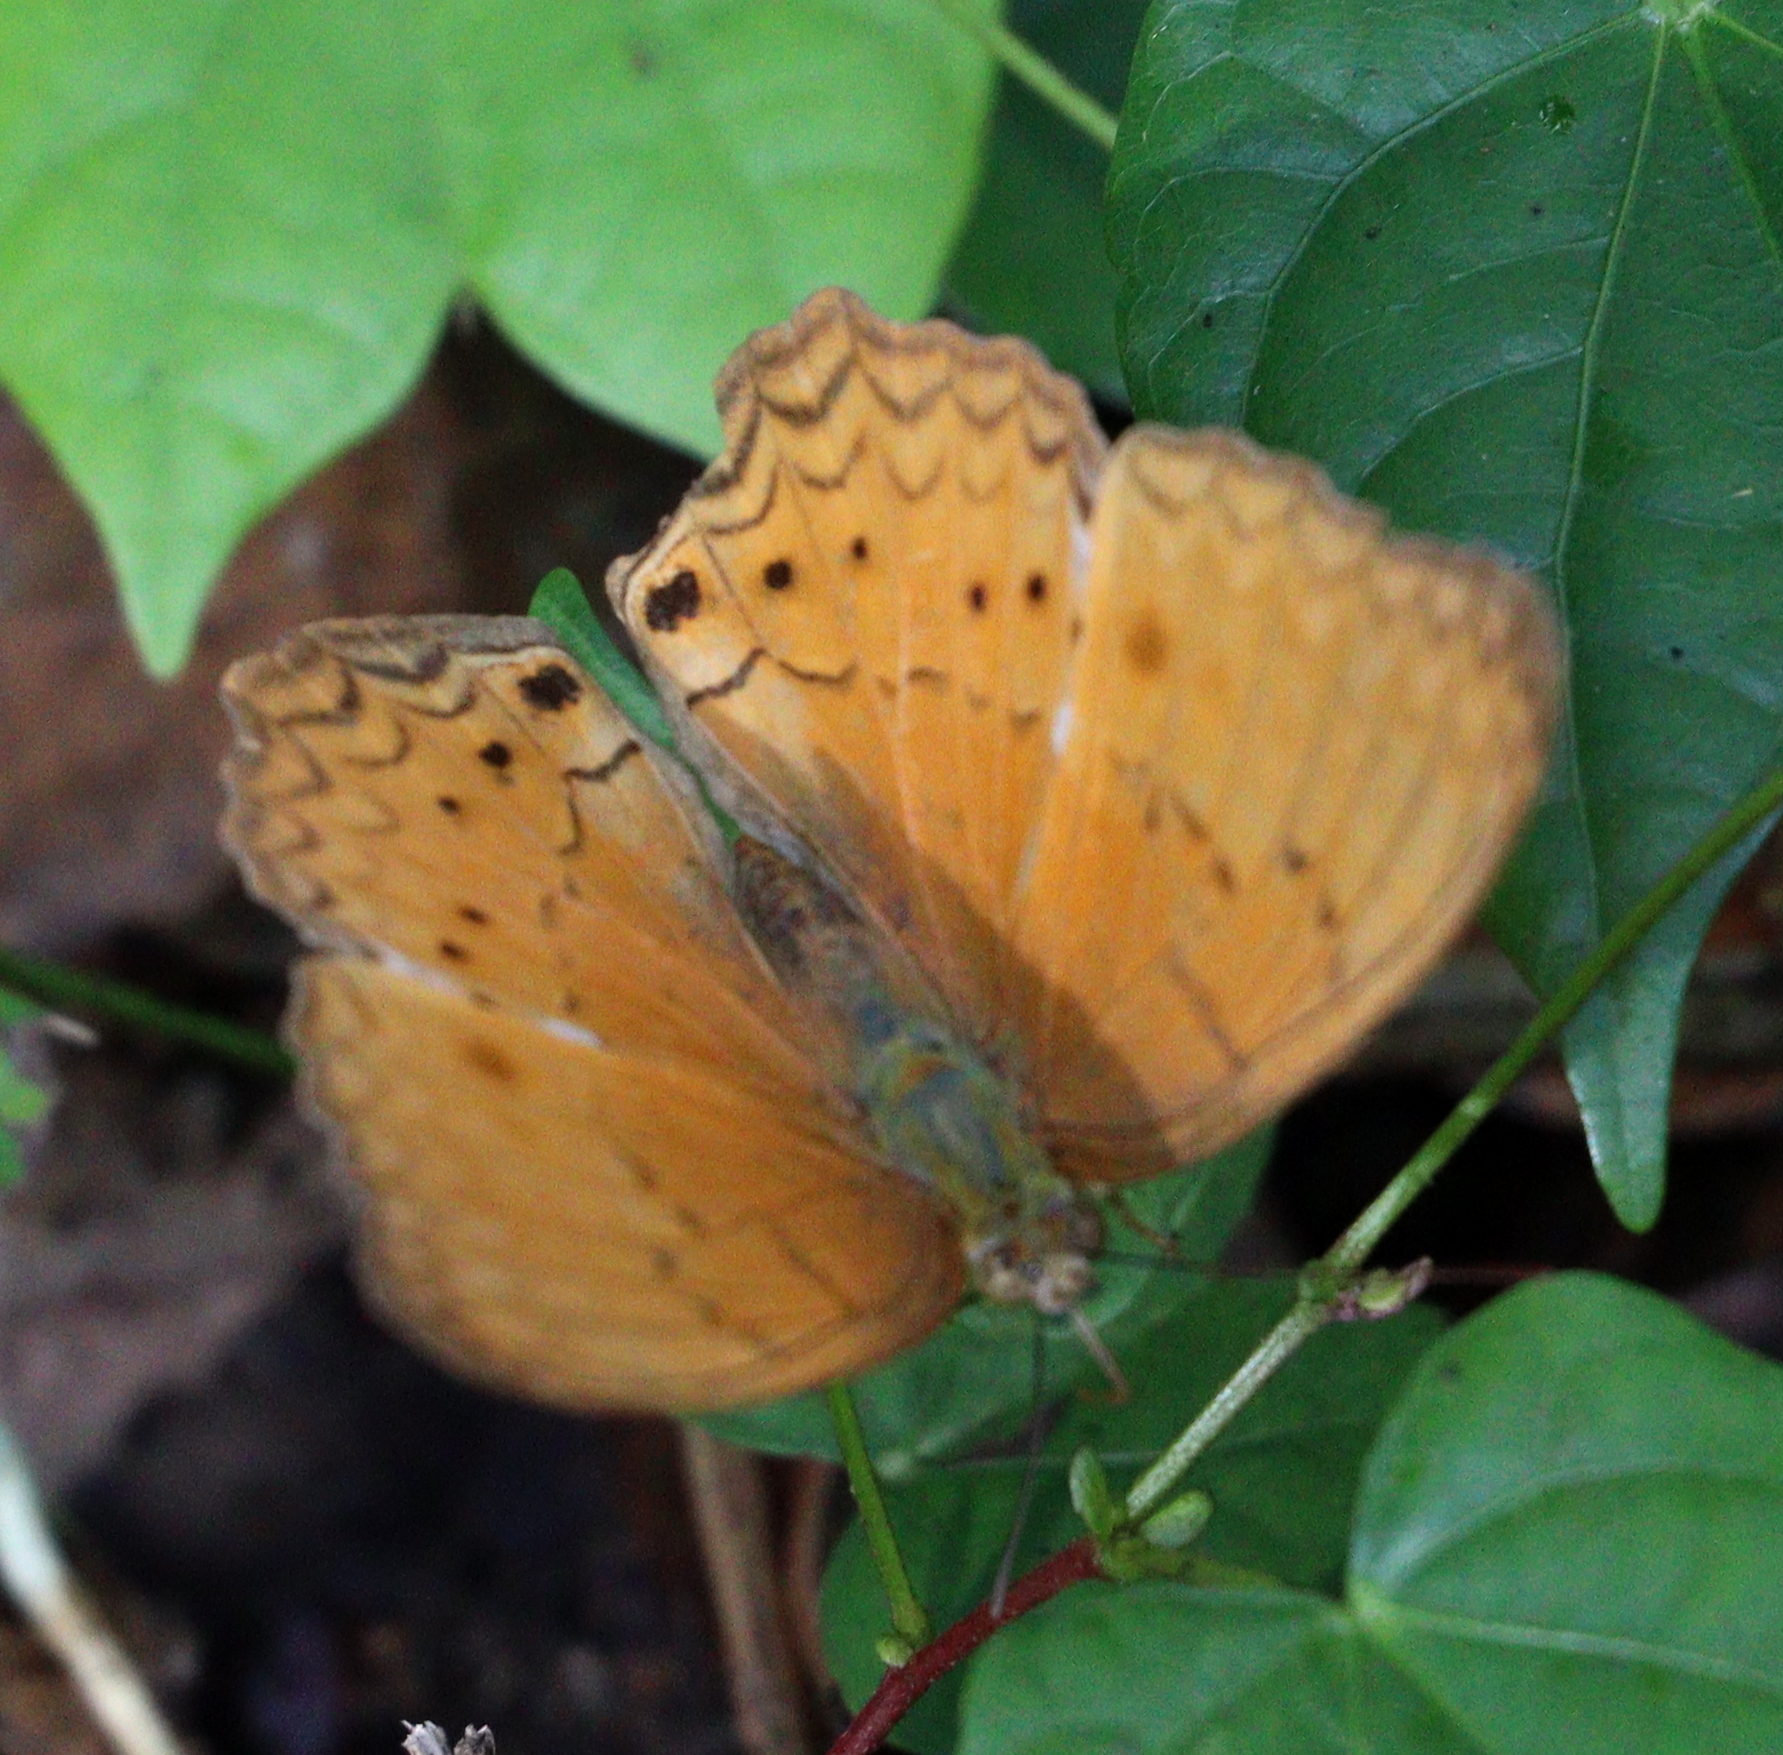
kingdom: Animalia
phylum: Arthropoda
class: Insecta
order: Lepidoptera
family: Nymphalidae
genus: Cirrochroa
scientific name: Cirrochroa tyche
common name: Common yeoman
